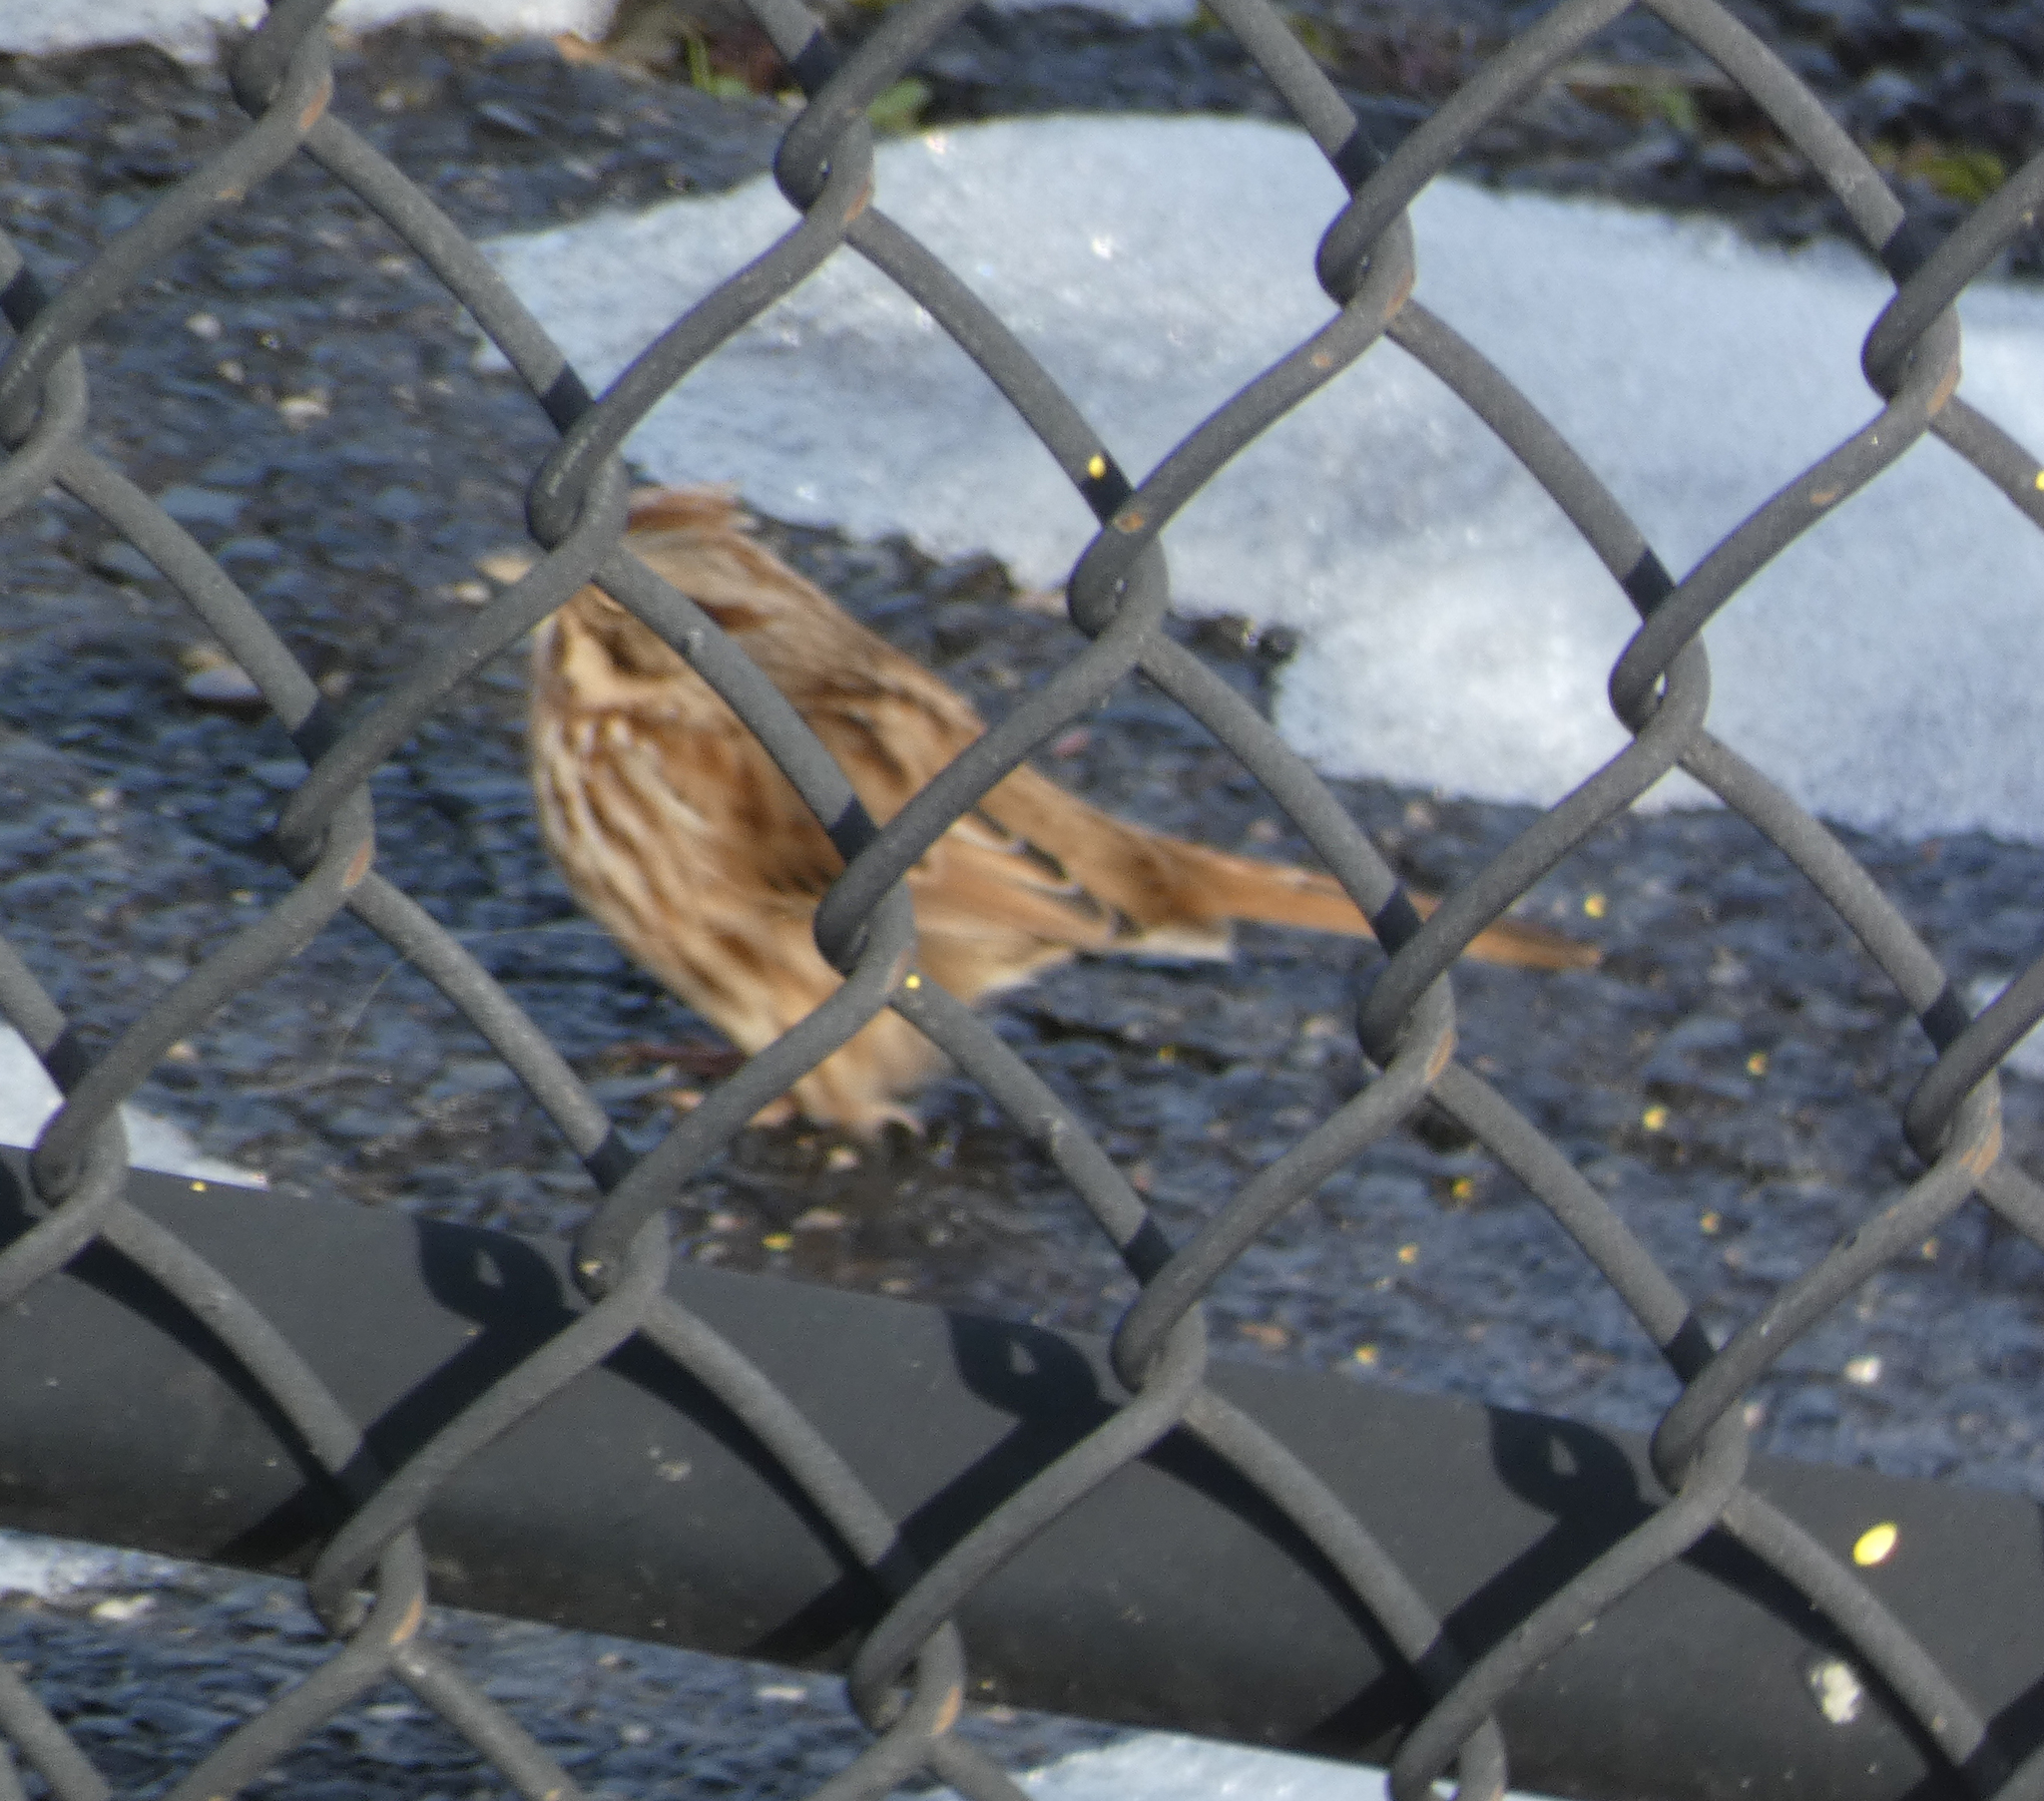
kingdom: Animalia
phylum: Chordata
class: Aves
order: Passeriformes
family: Passerellidae
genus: Melospiza
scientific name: Melospiza melodia
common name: Song sparrow
